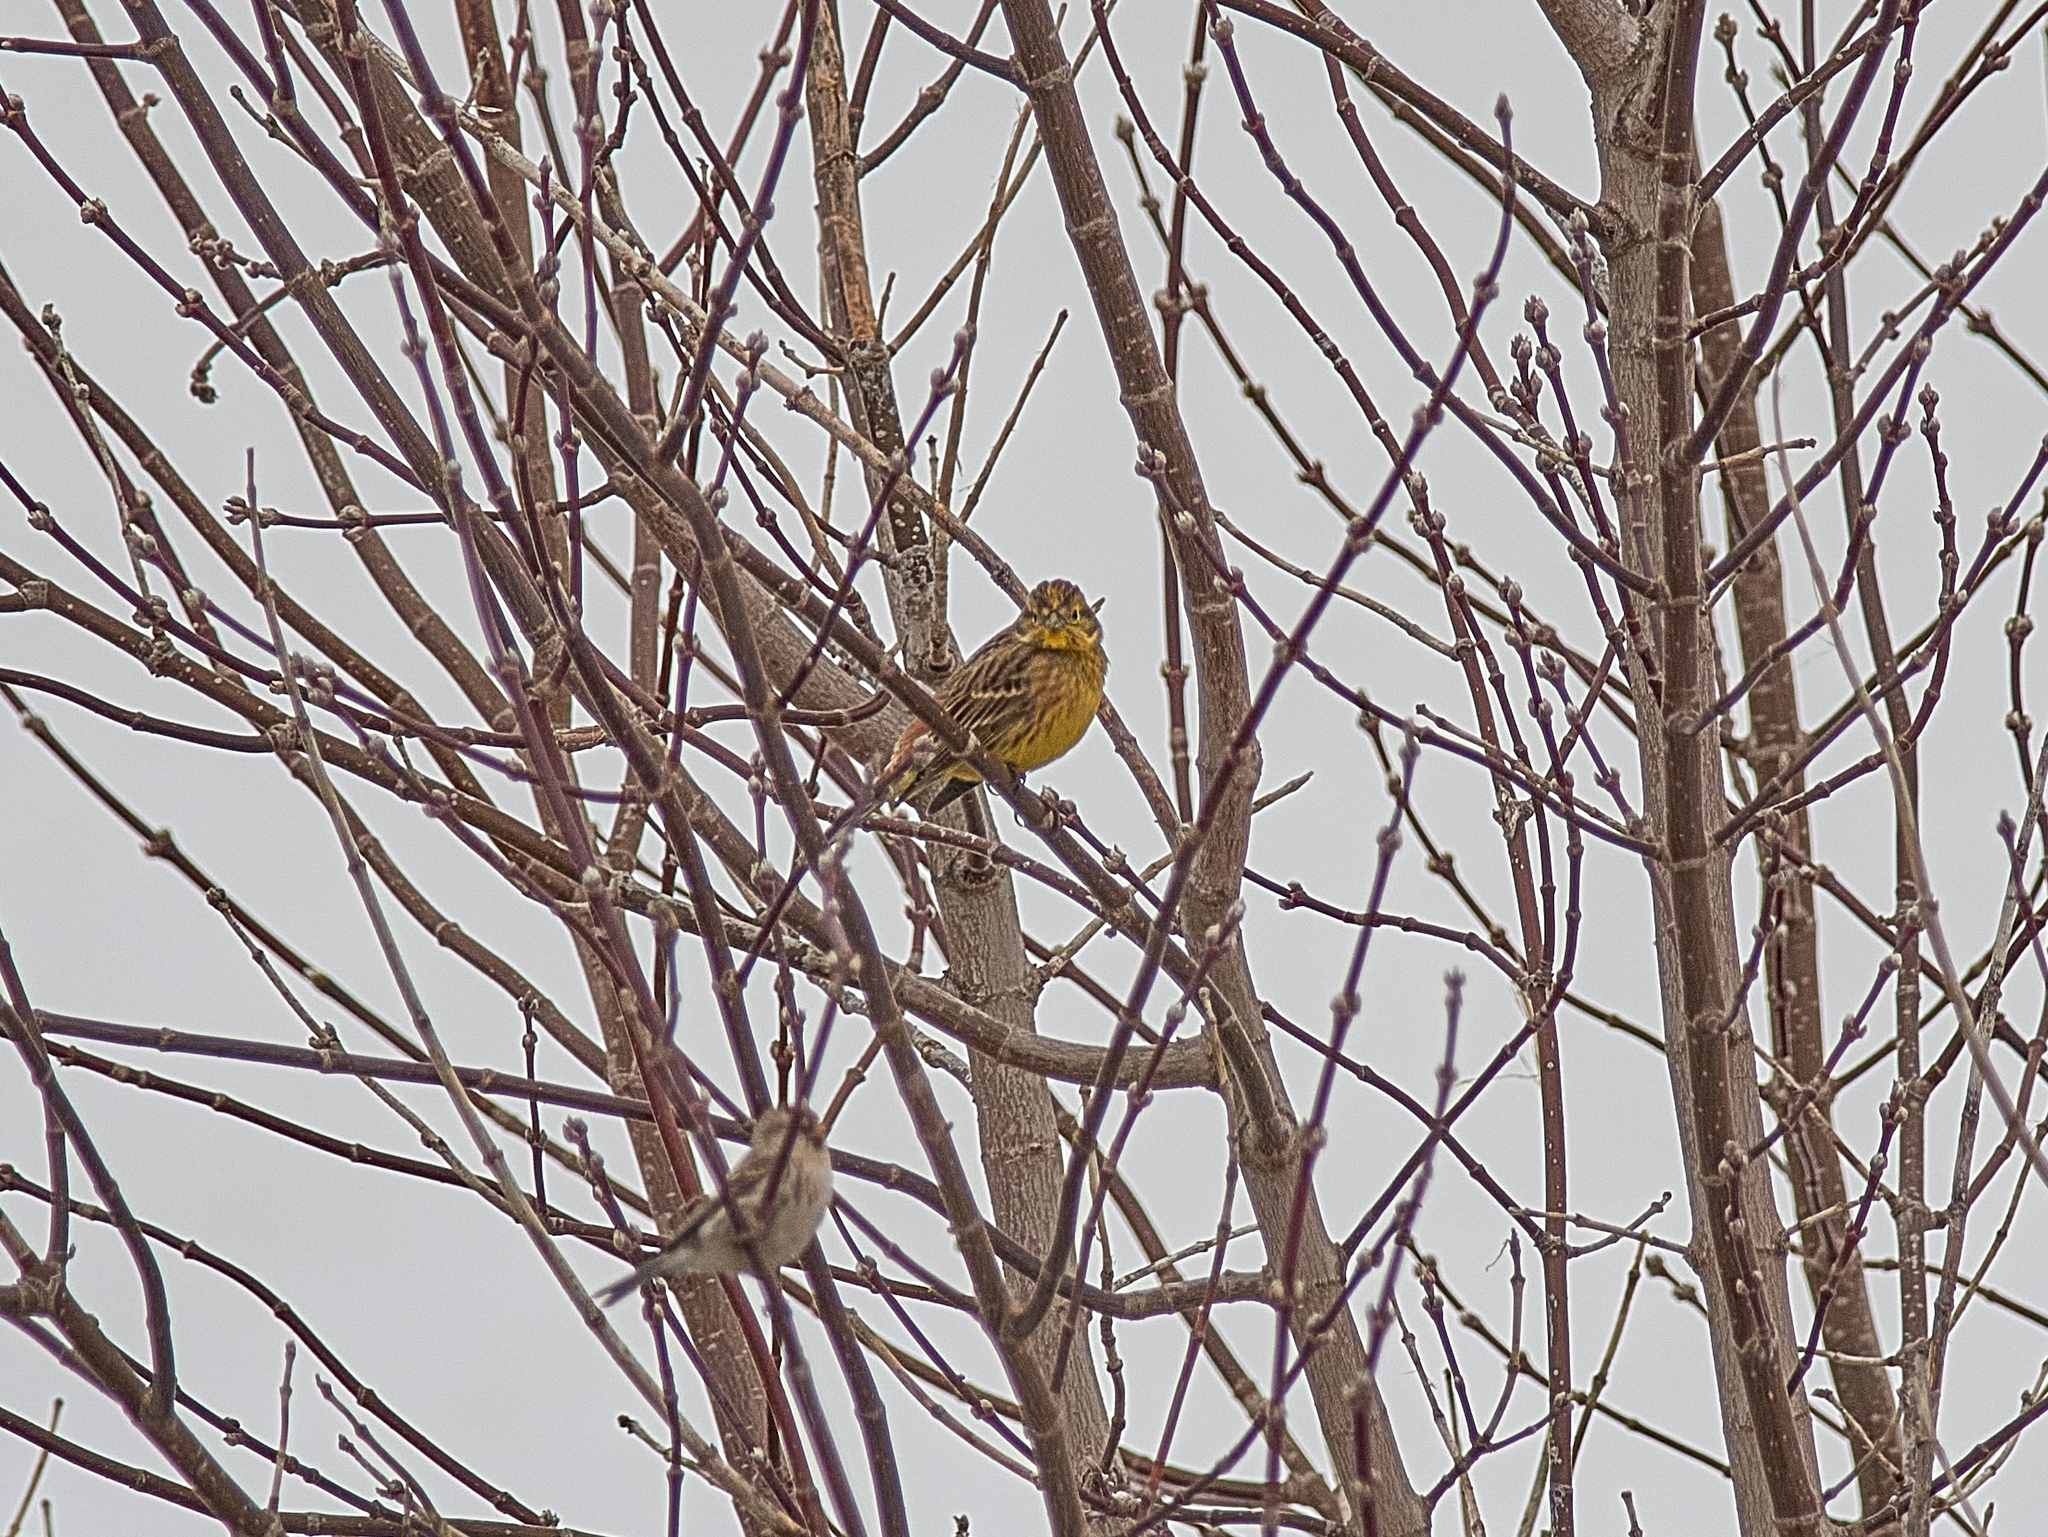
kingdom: Animalia
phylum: Chordata
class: Aves
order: Passeriformes
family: Emberizidae
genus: Emberiza
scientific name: Emberiza citrinella
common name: Yellowhammer
